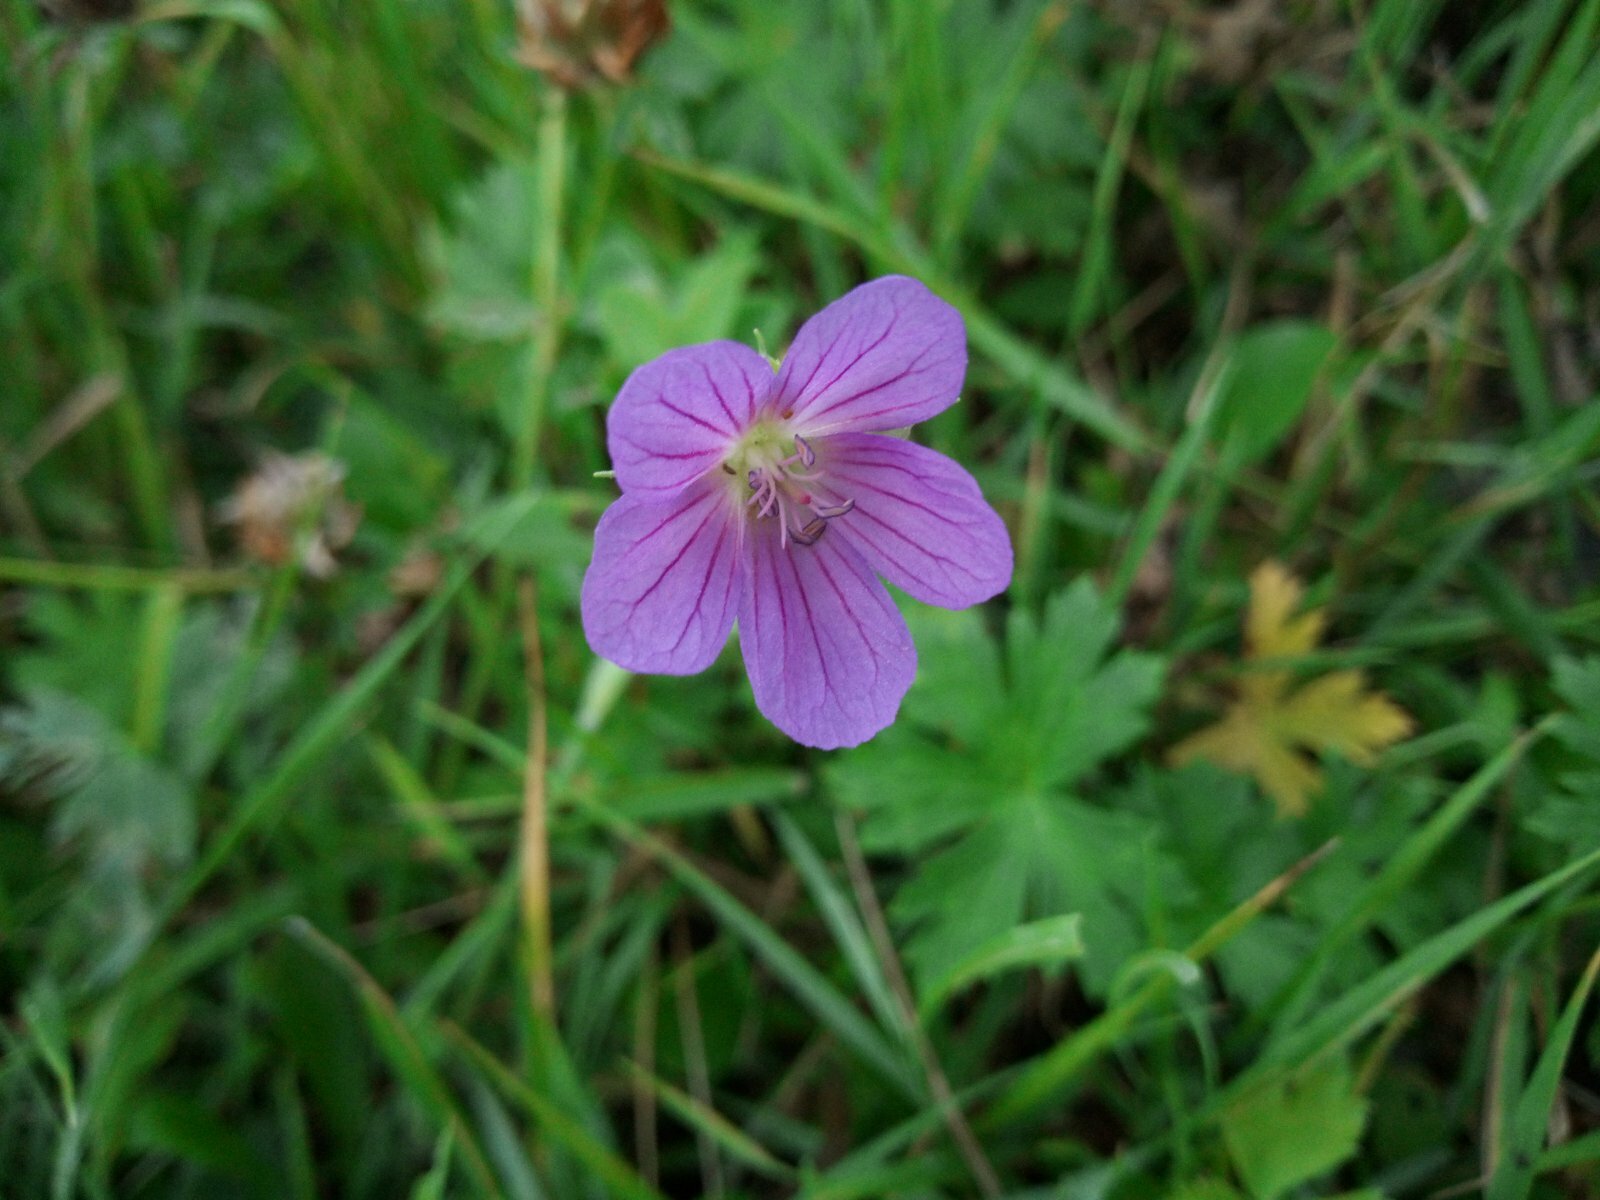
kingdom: Plantae
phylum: Tracheophyta
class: Magnoliopsida
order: Geraniales
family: Geraniaceae
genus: Geranium
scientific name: Geranium collinum
